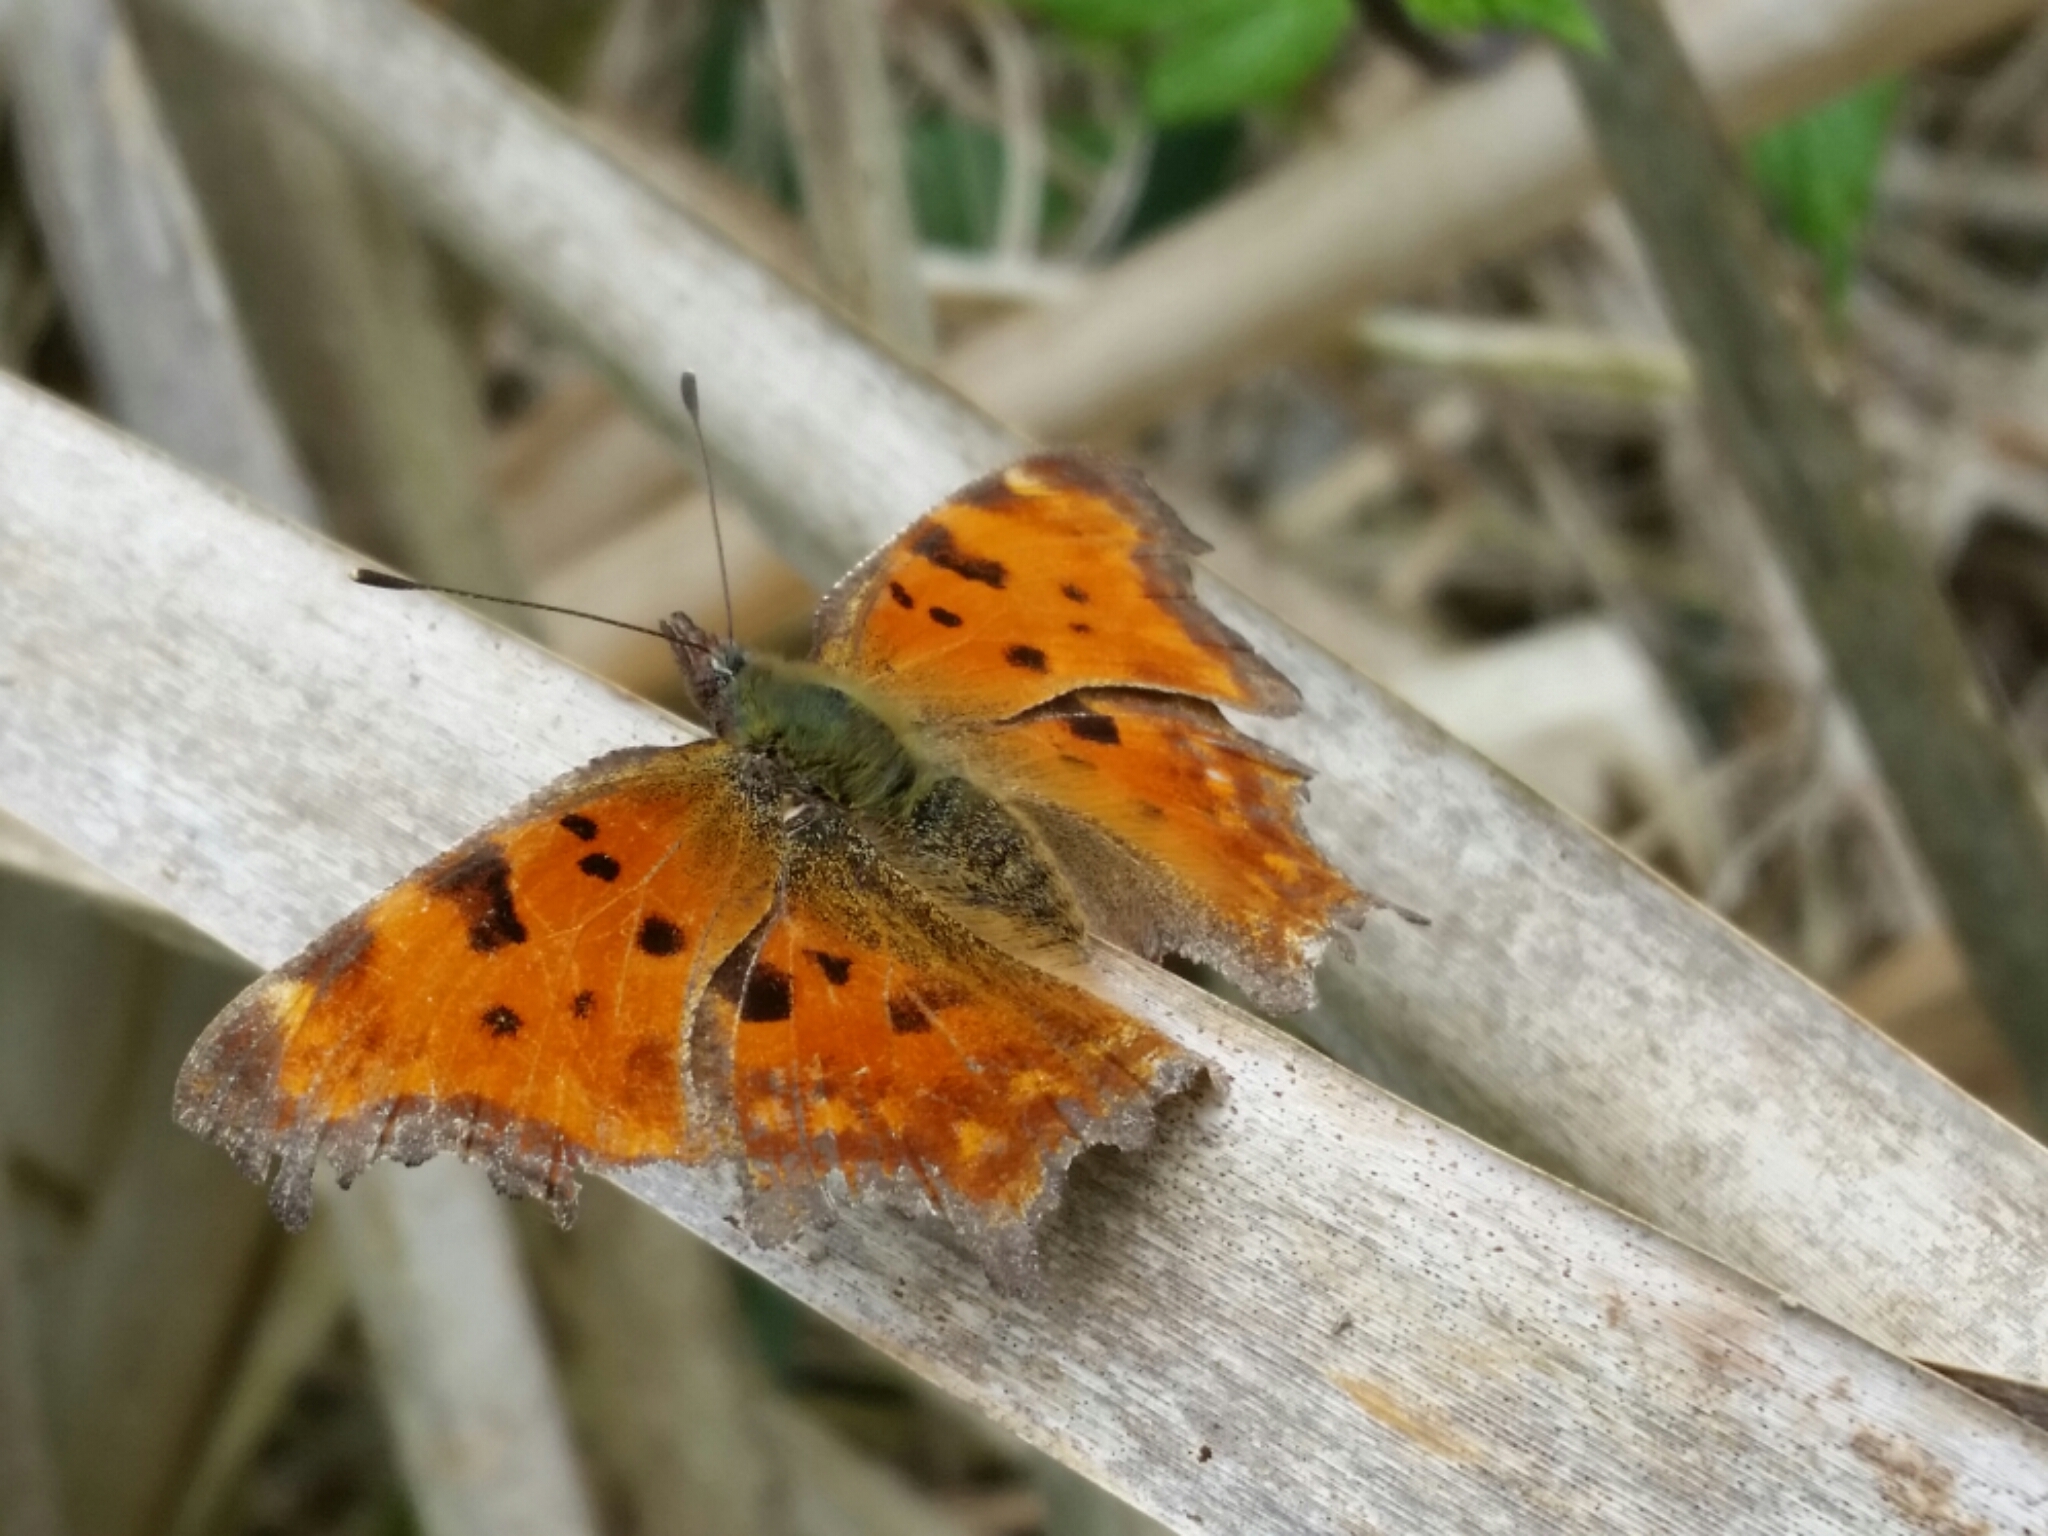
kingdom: Animalia
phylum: Arthropoda
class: Insecta
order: Lepidoptera
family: Nymphalidae
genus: Polygonia
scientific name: Polygonia c-album
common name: Comma
